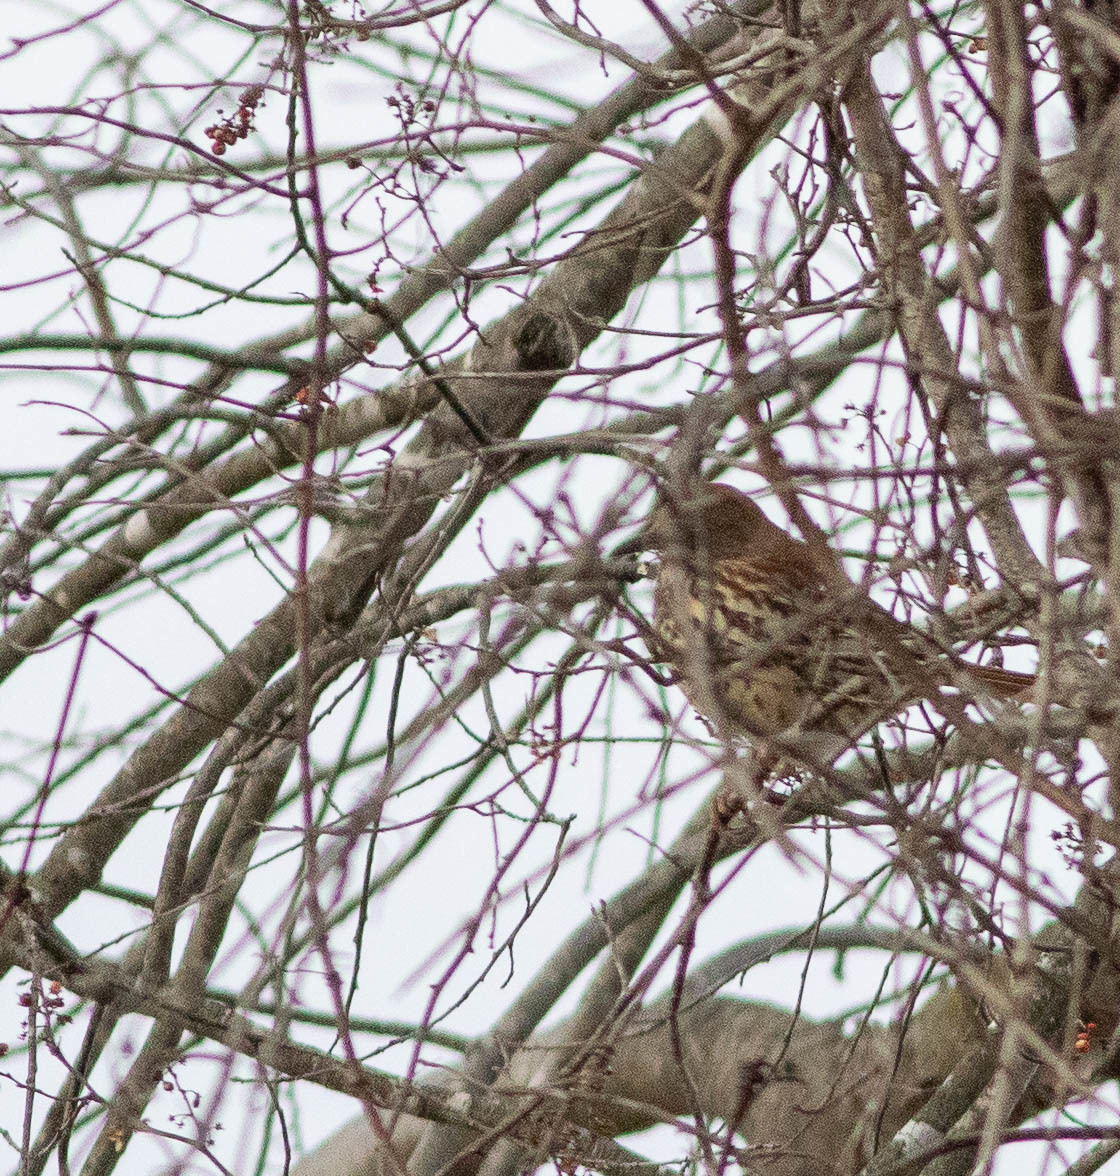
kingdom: Animalia
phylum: Chordata
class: Aves
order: Passeriformes
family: Mimidae
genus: Toxostoma
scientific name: Toxostoma rufum
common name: Brown thrasher
